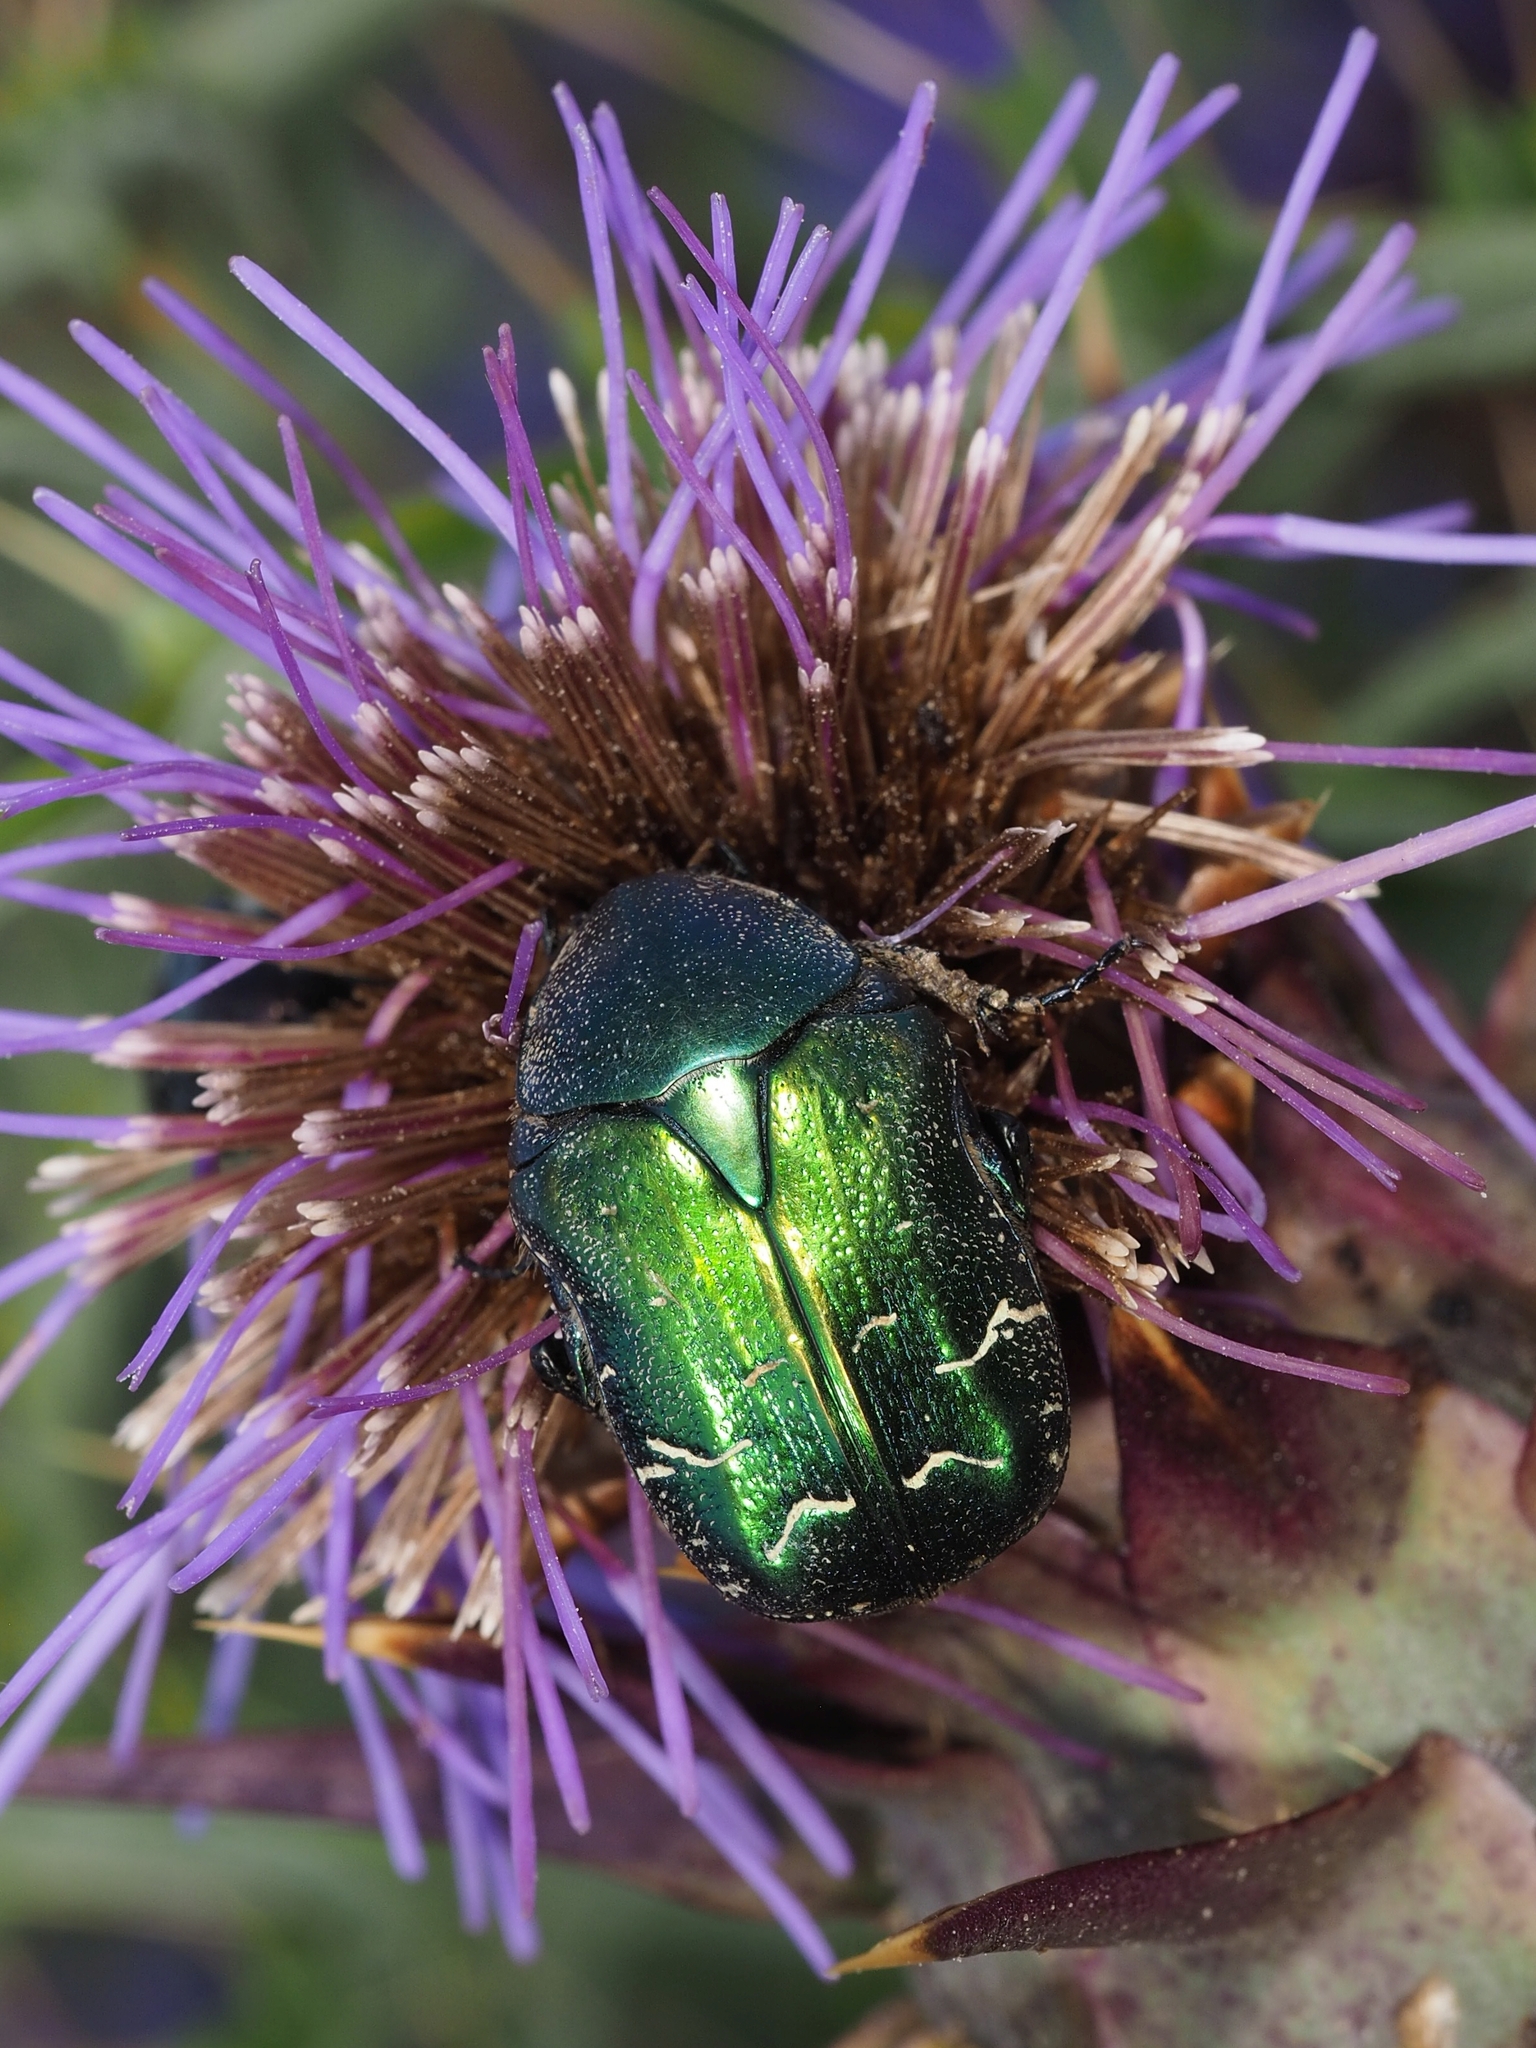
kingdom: Animalia
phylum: Arthropoda
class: Insecta
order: Coleoptera
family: Scarabaeidae
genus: Cetonia
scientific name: Cetonia aurata
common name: Rose chafer
